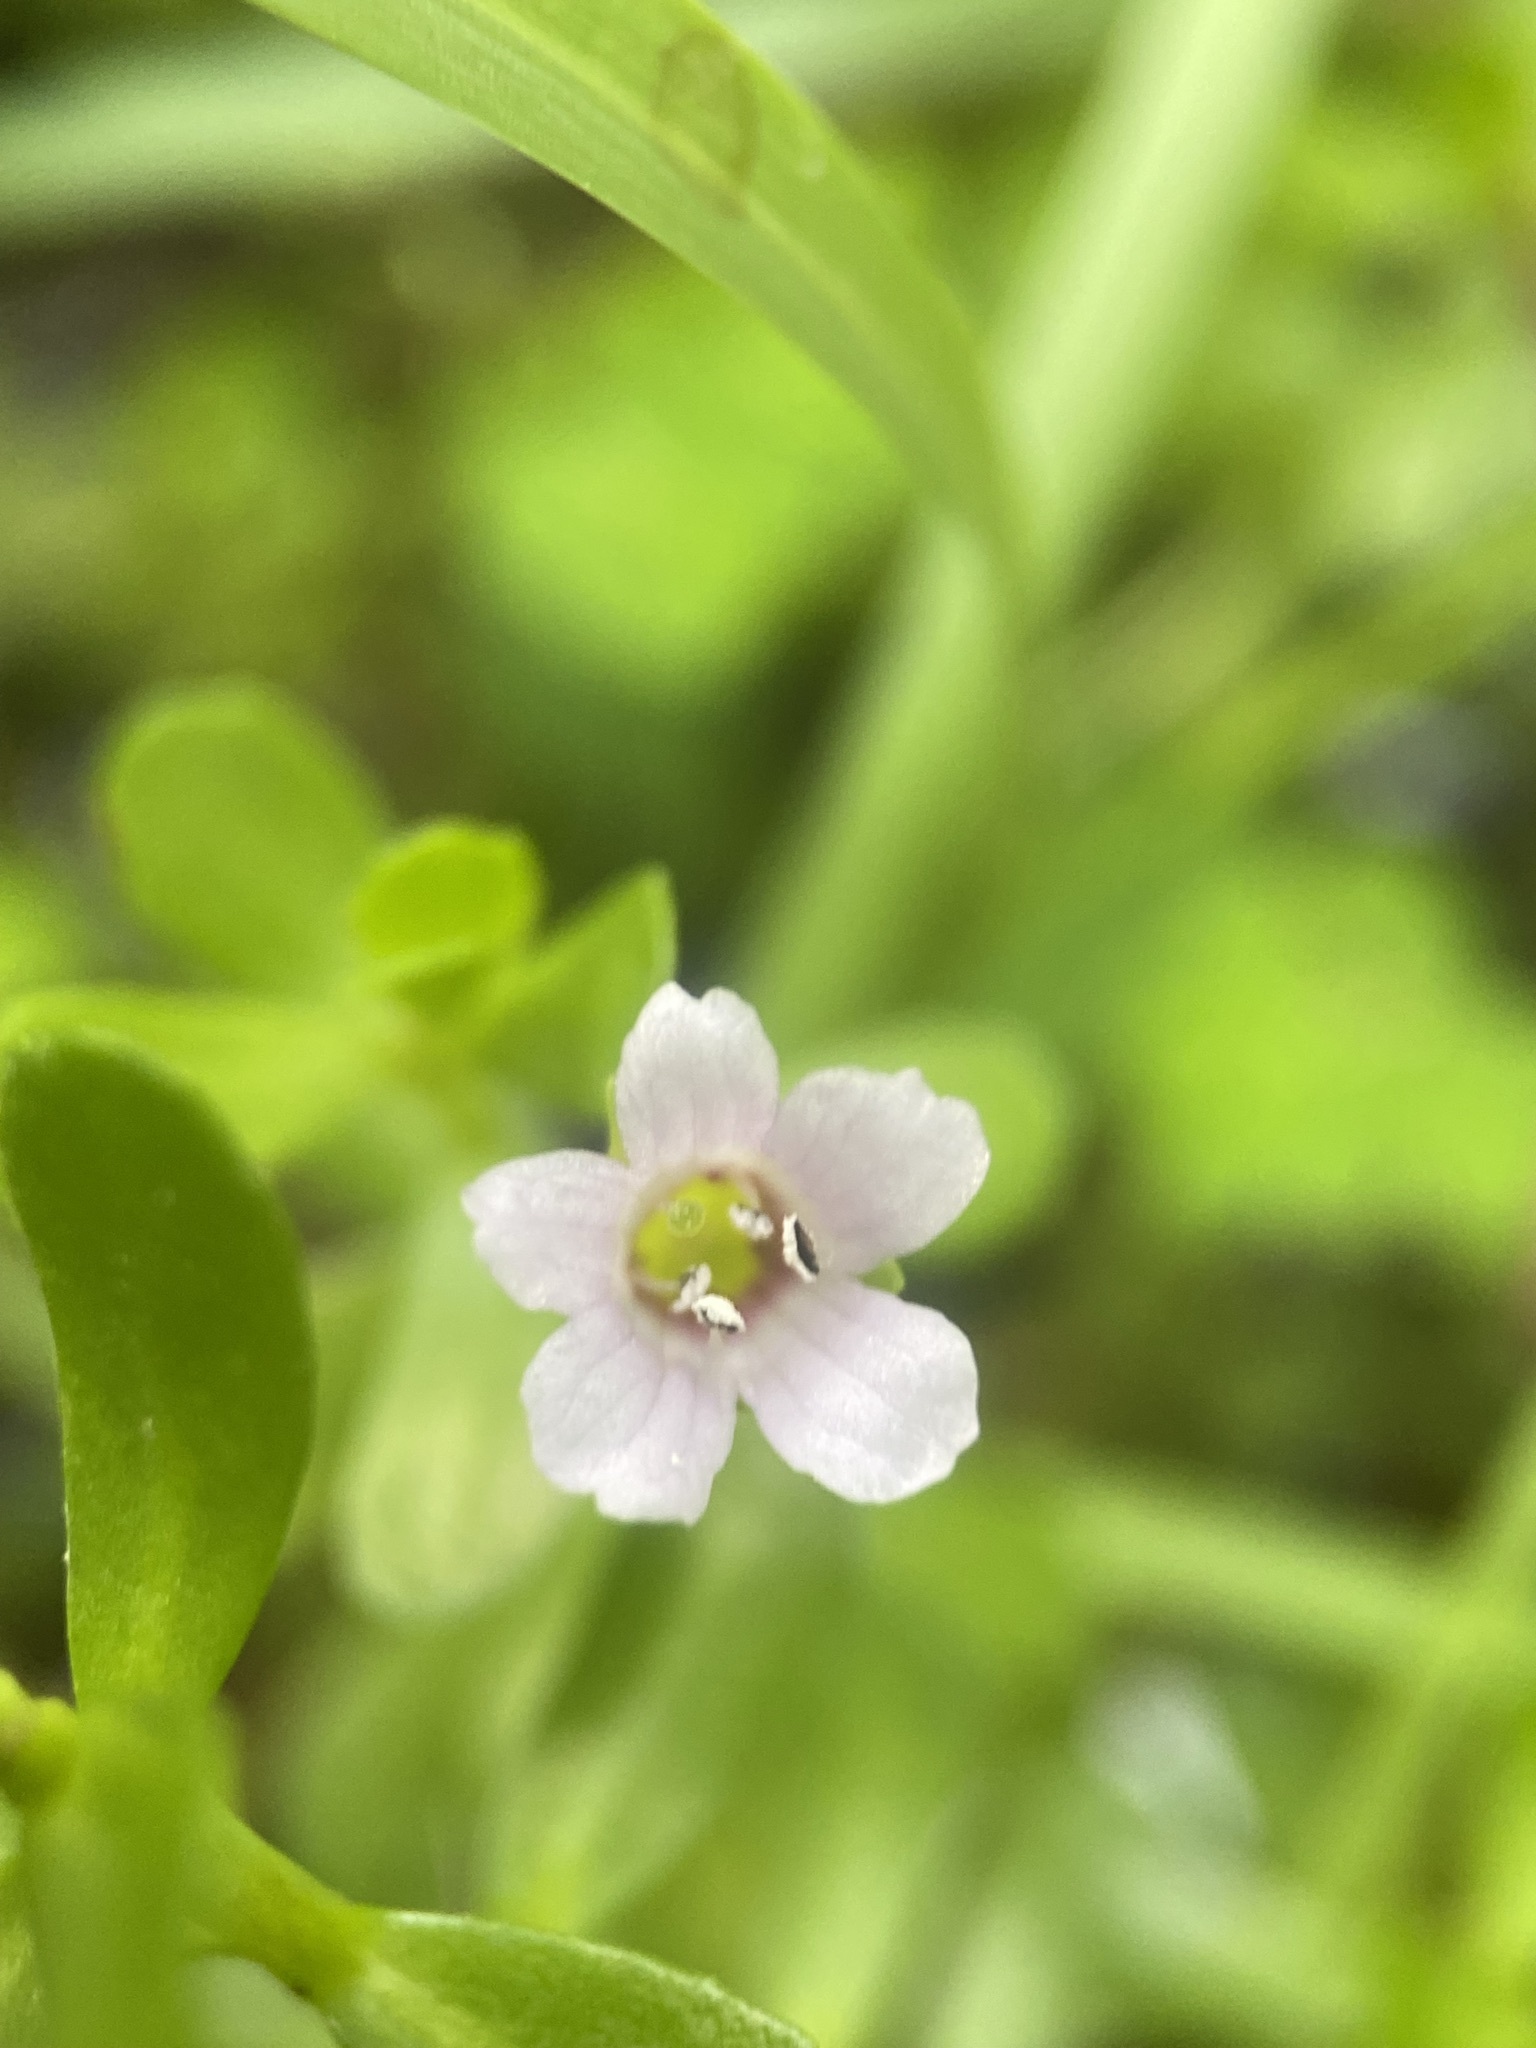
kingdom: Plantae
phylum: Tracheophyta
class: Magnoliopsida
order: Lamiales
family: Plantaginaceae
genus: Bacopa
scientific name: Bacopa monnieri
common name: Indian-pennywort
